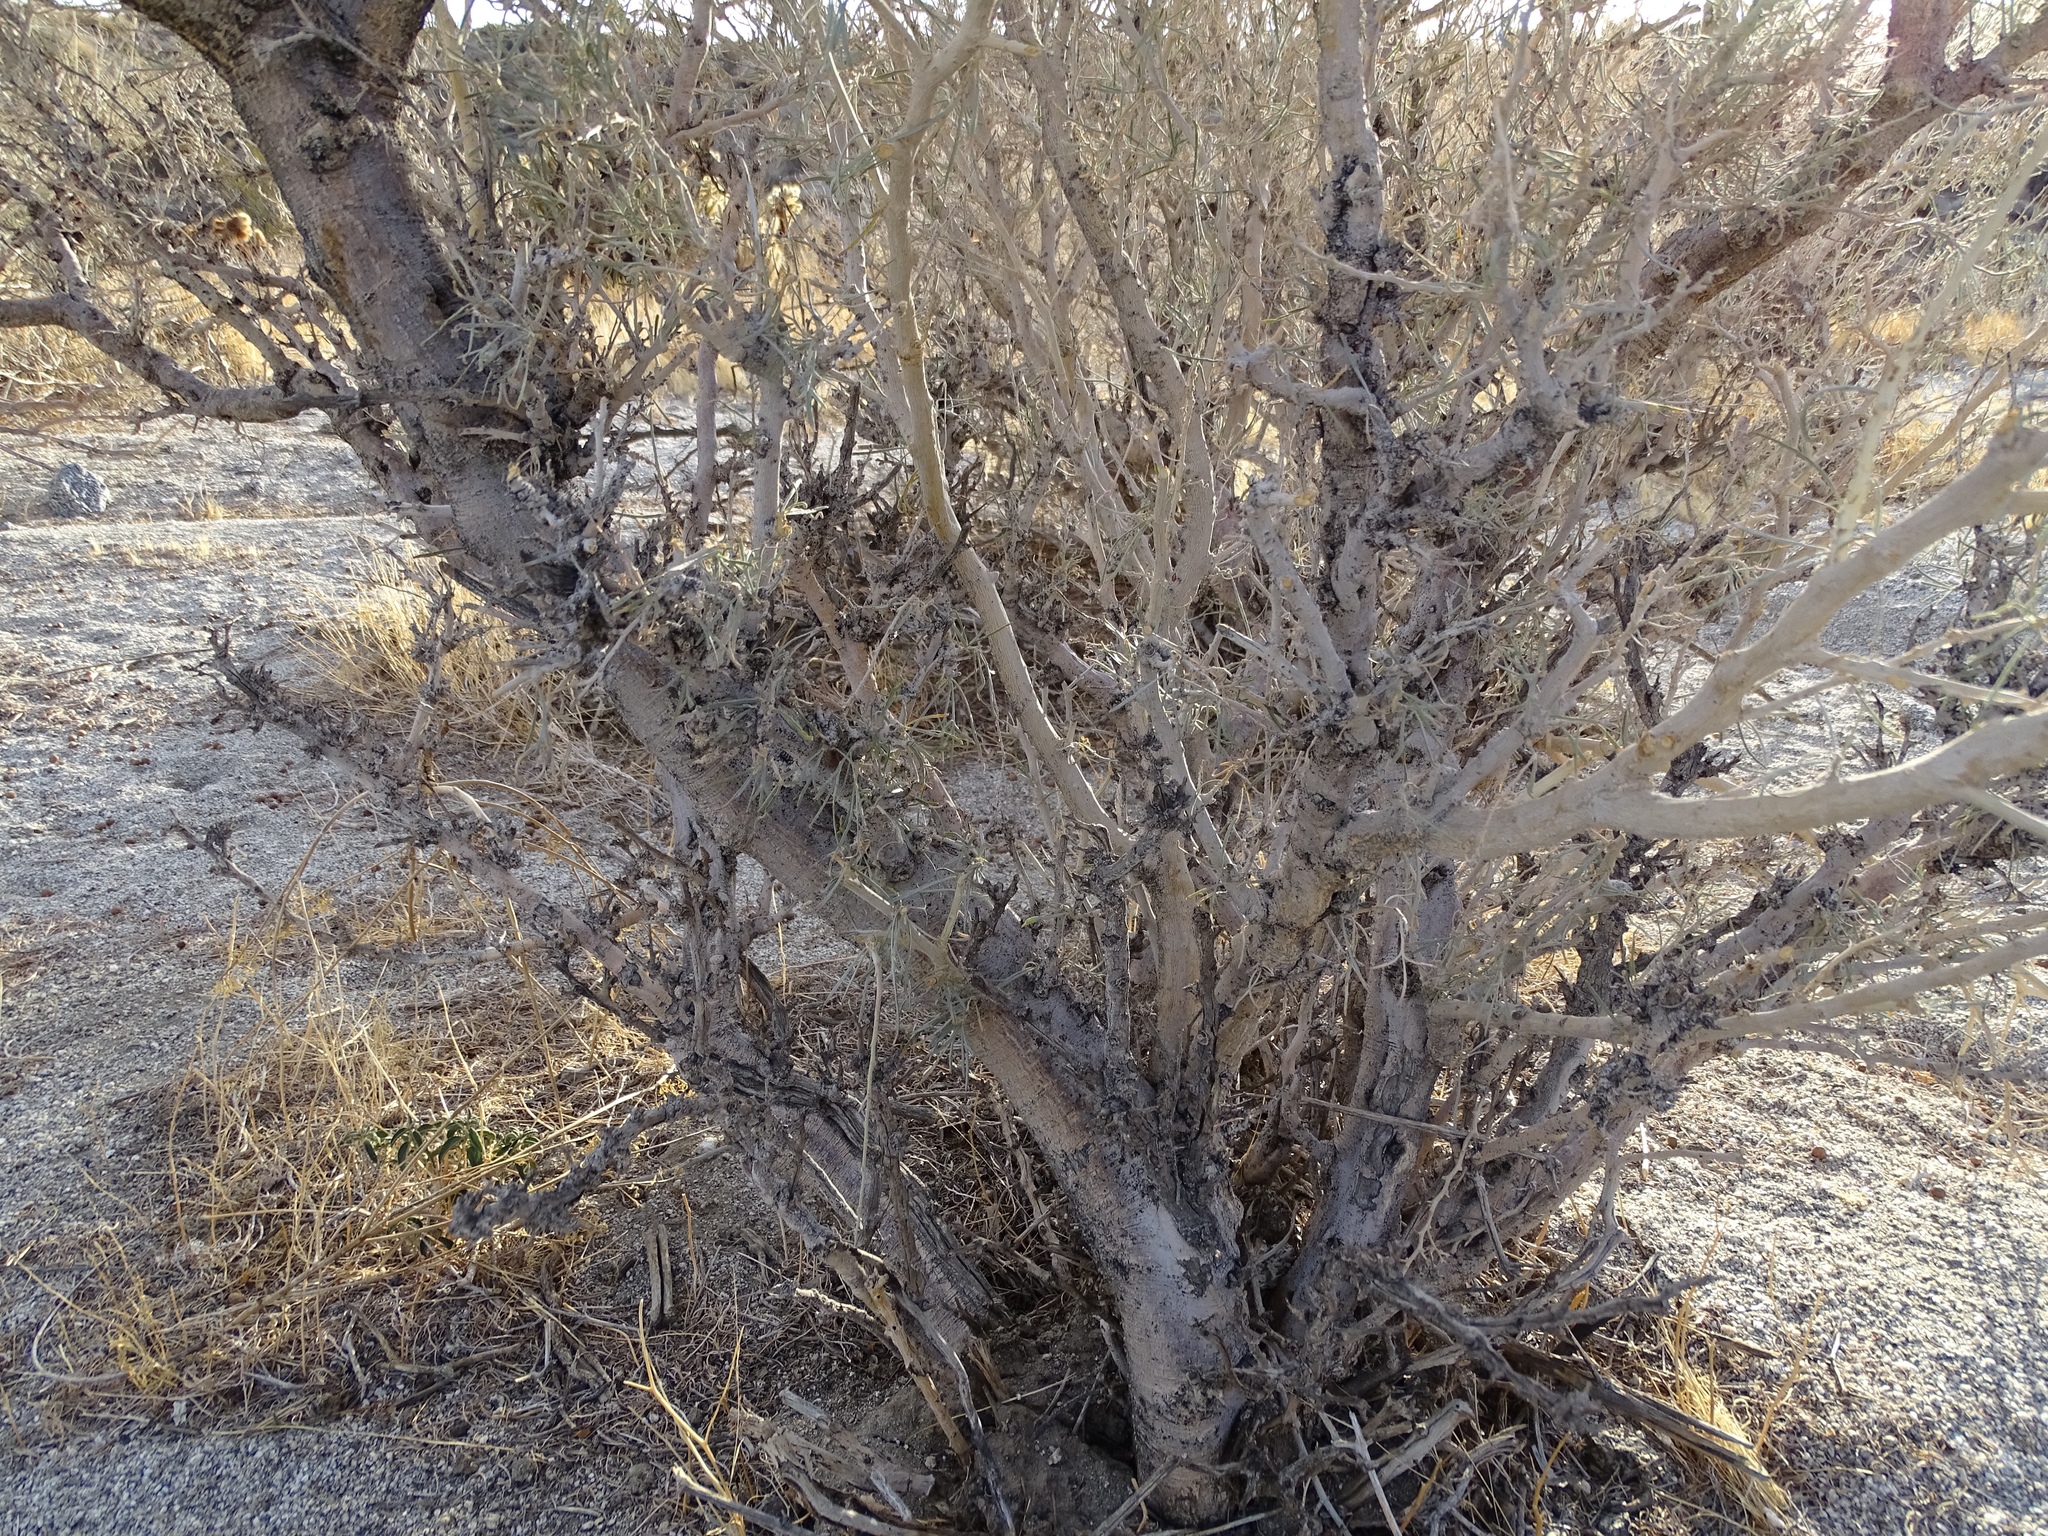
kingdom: Plantae
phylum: Tracheophyta
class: Magnoliopsida
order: Fabales
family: Fabaceae
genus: Psorothamnus
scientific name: Psorothamnus schottii
